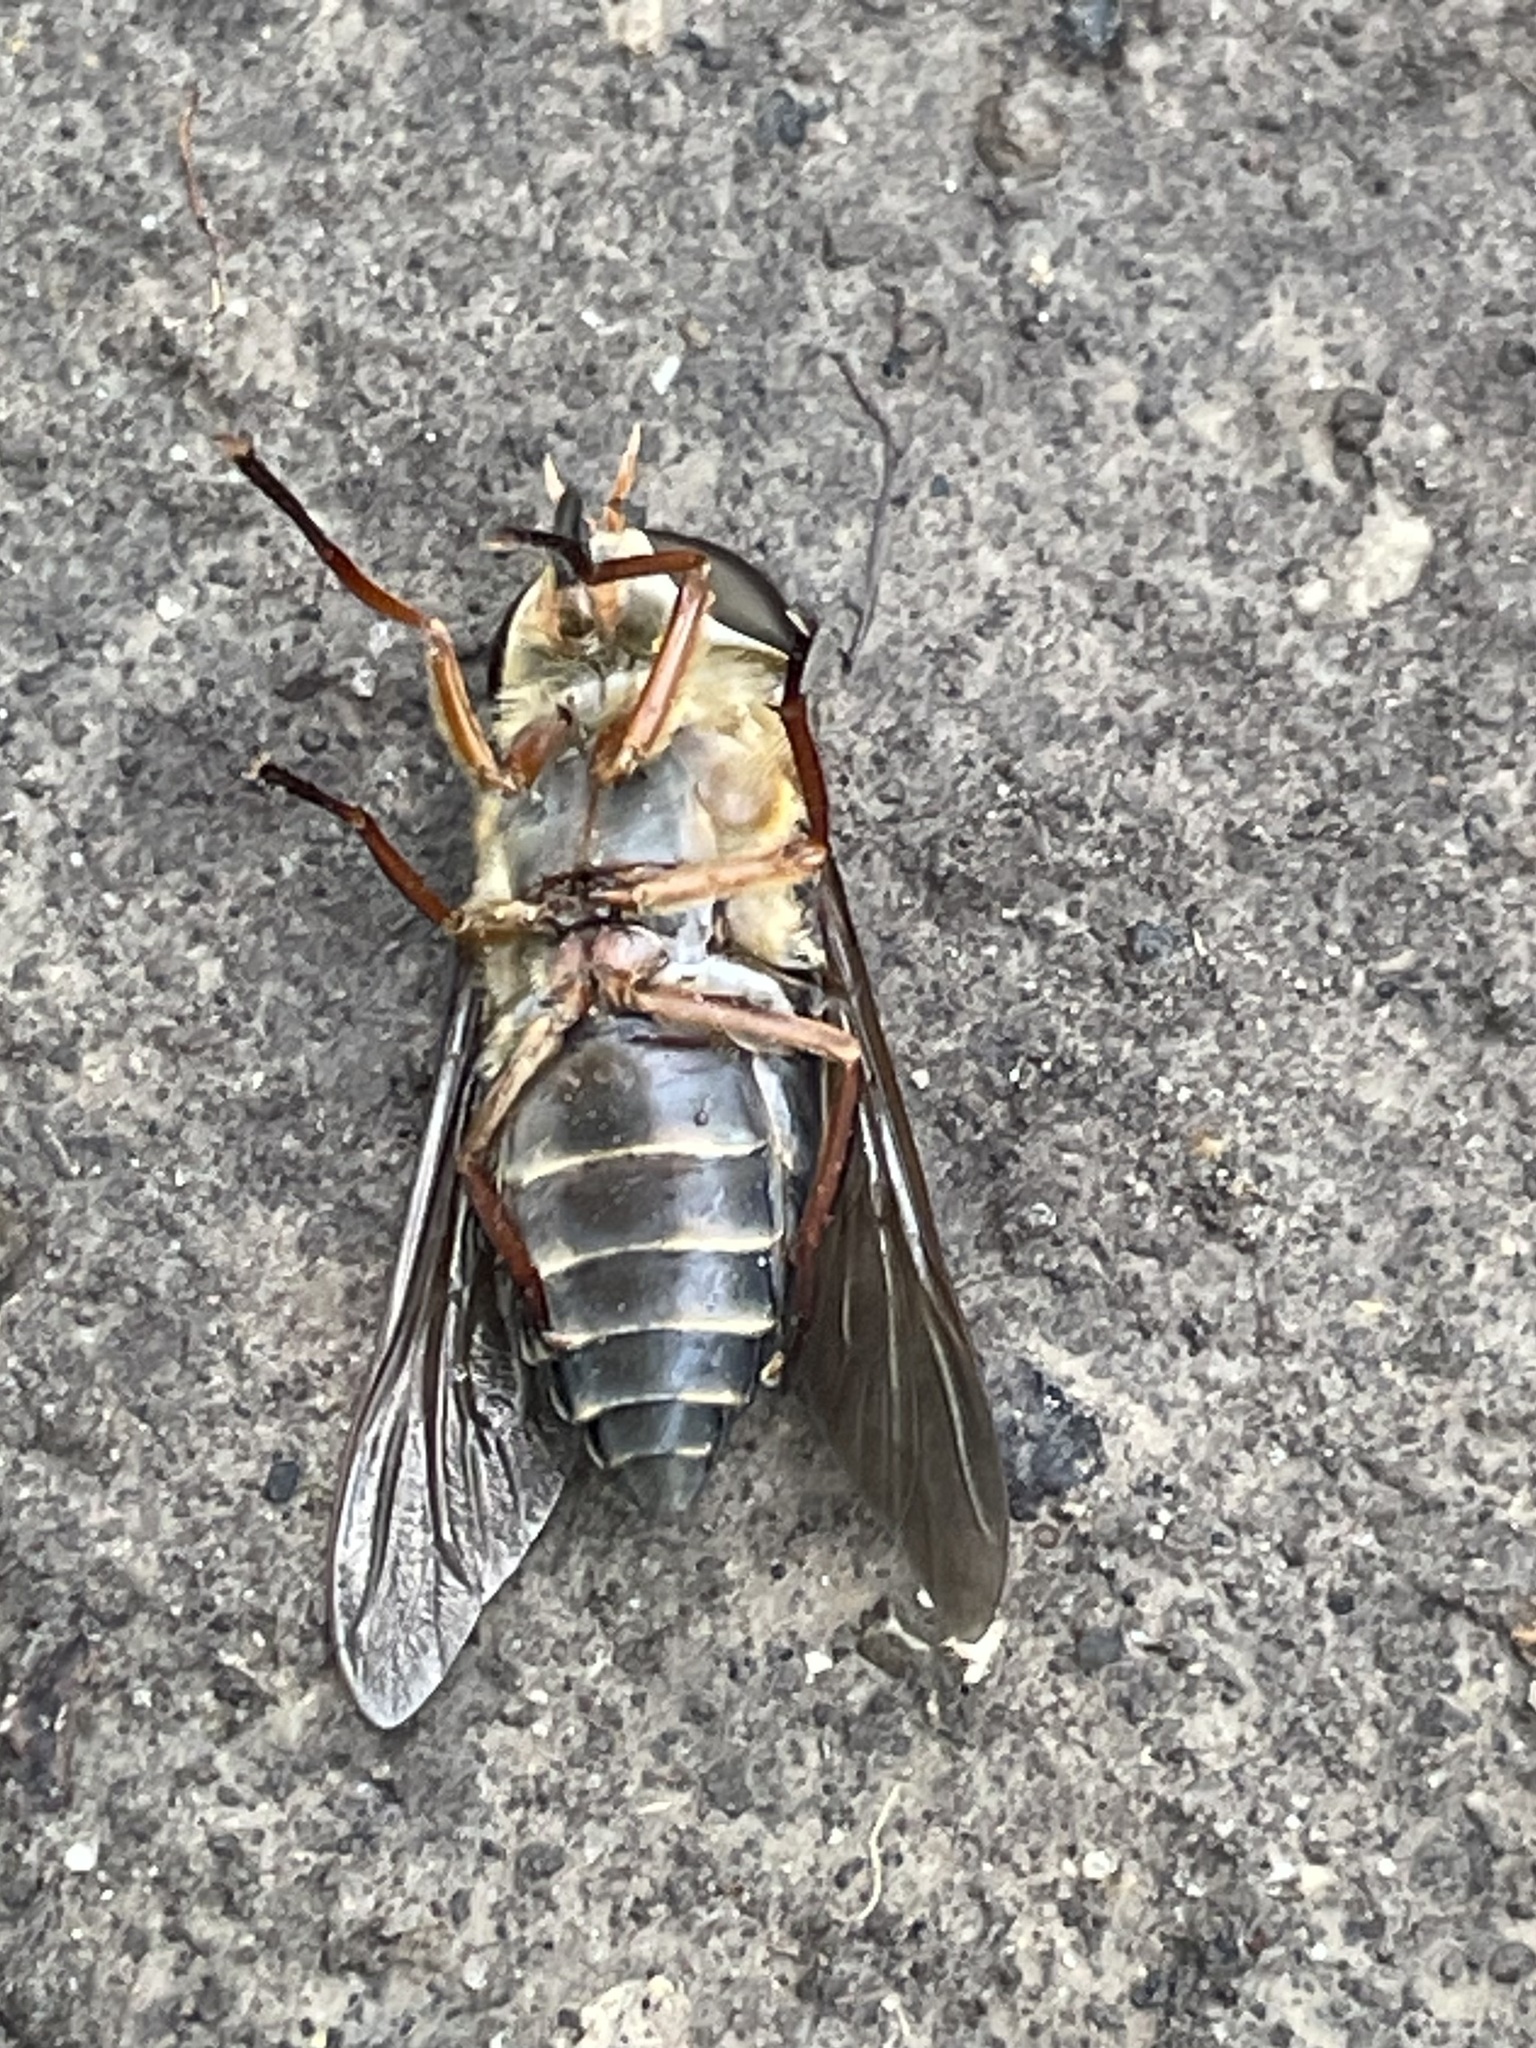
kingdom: Animalia
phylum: Arthropoda
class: Insecta
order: Diptera
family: Tabanidae
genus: Tabanus
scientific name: Tabanus calens
